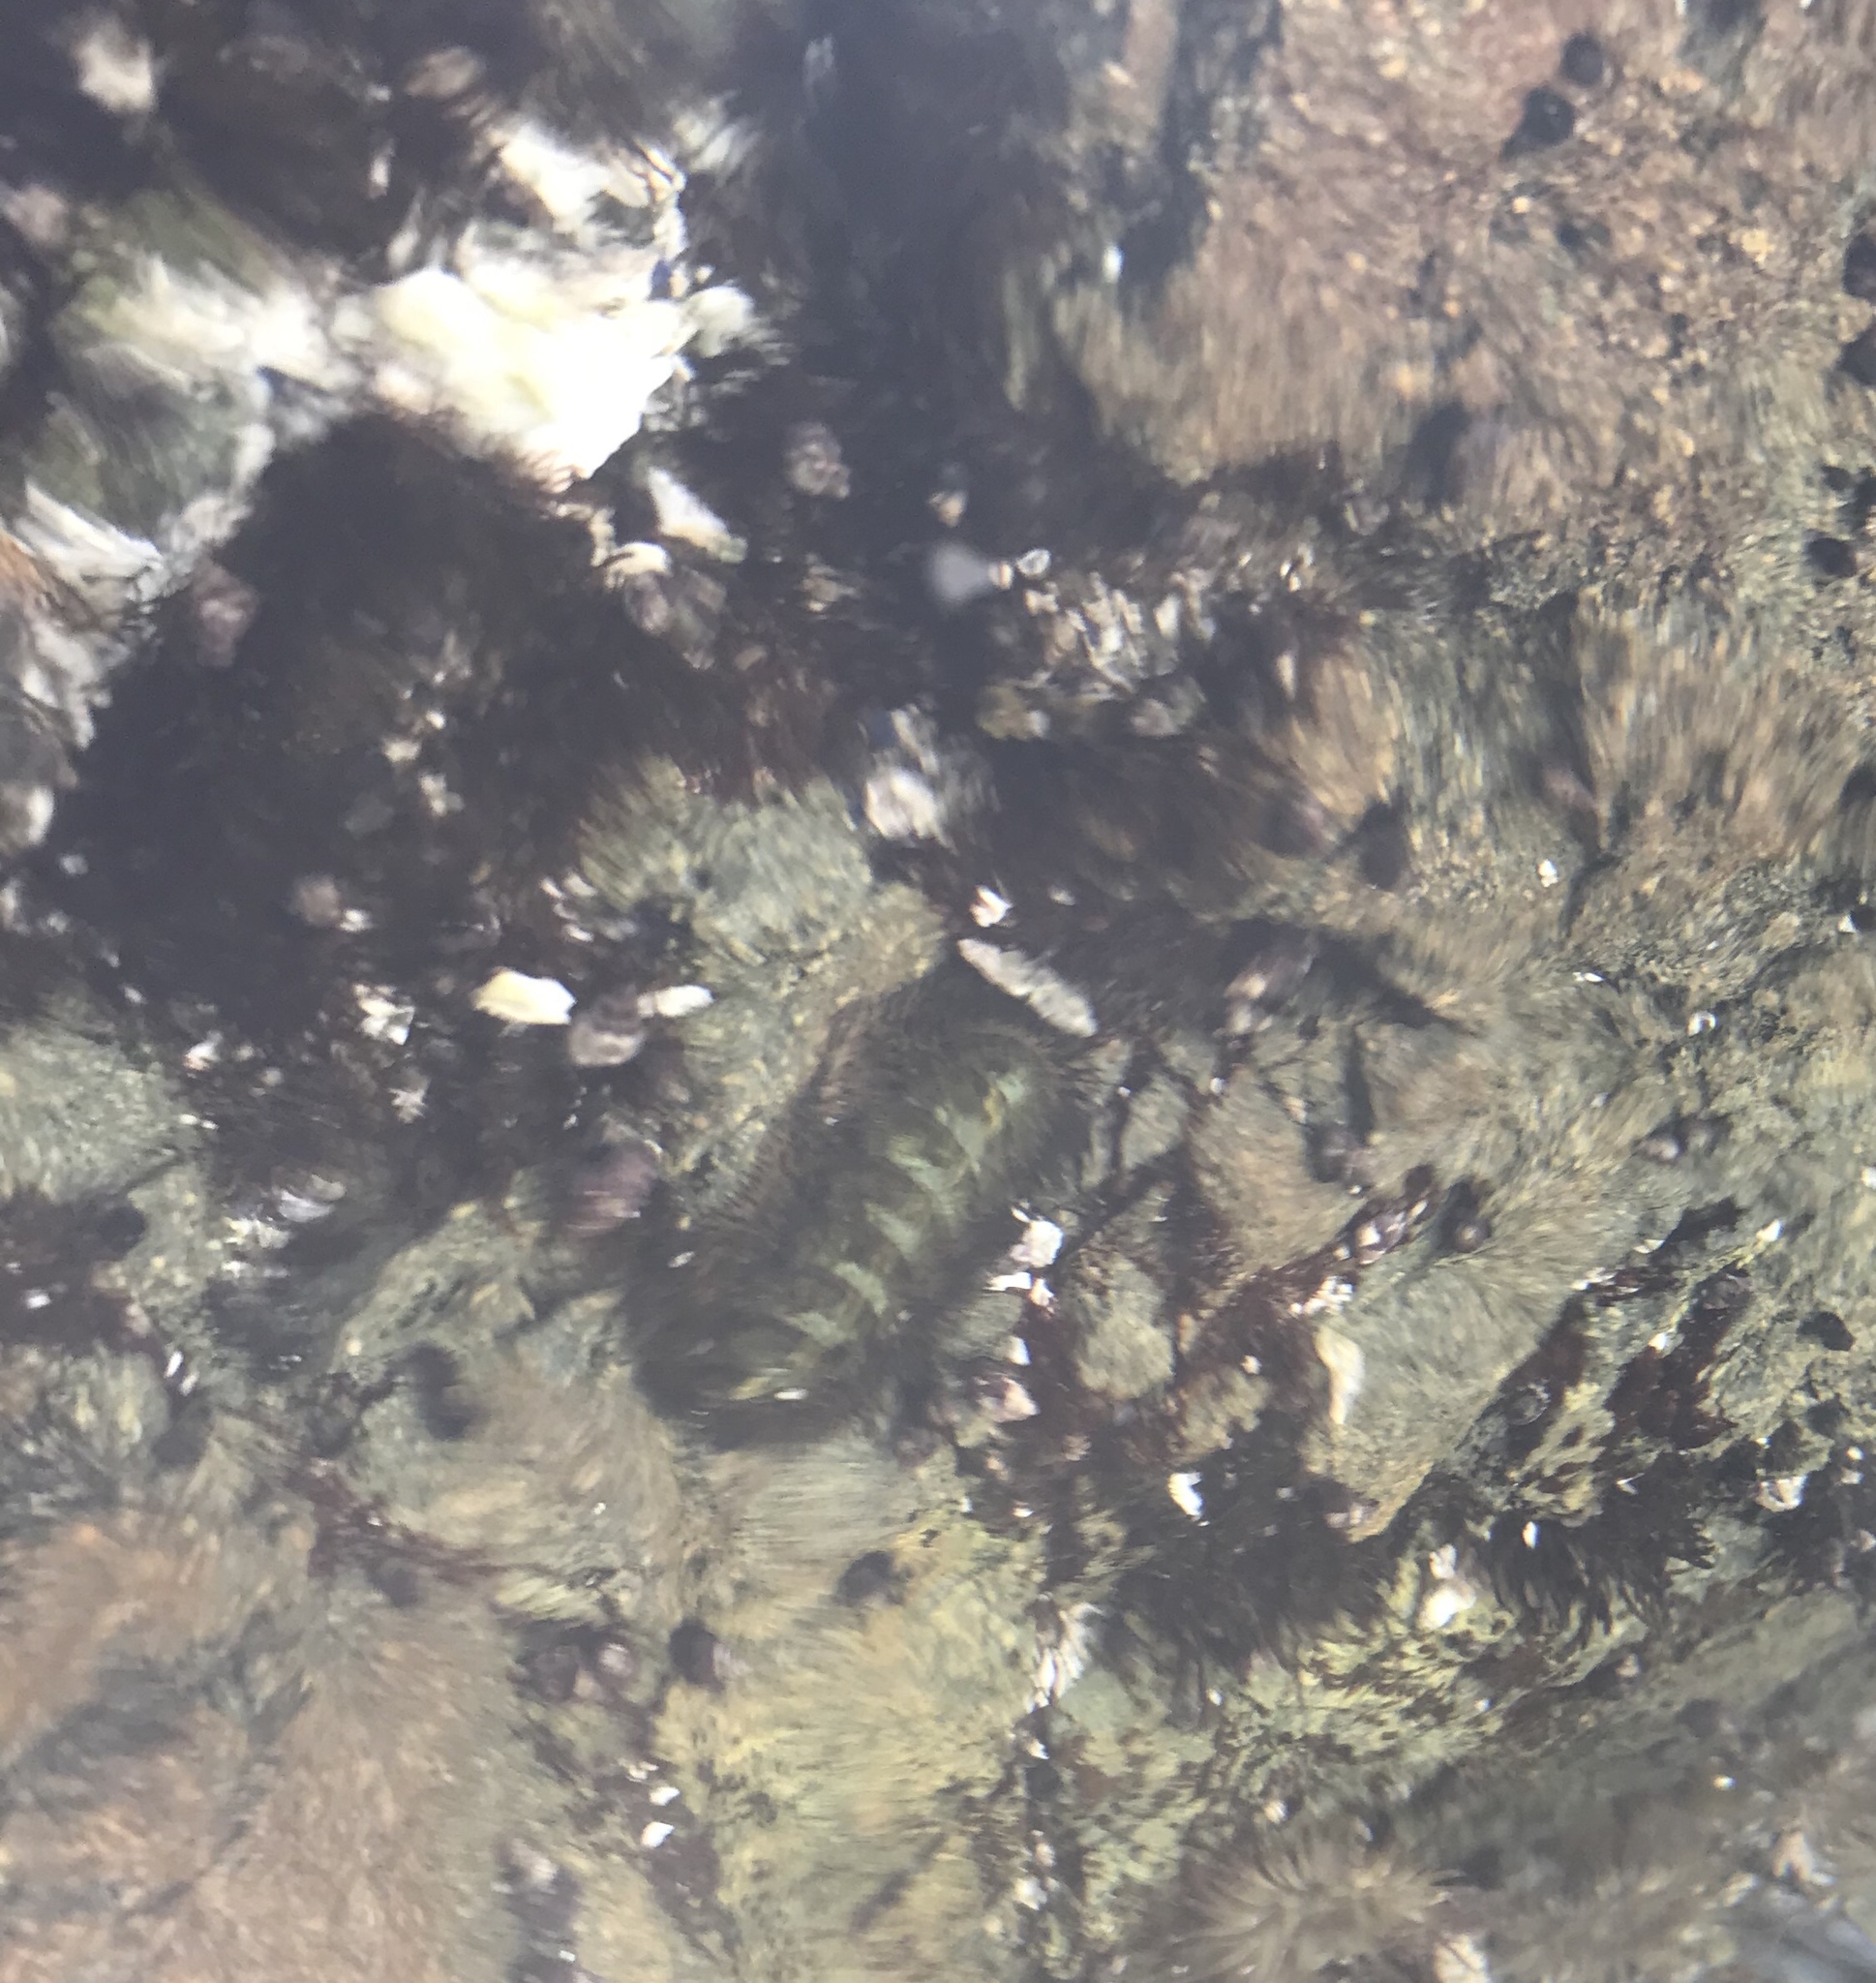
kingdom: Animalia
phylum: Mollusca
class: Polyplacophora
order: Chitonida
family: Mopaliidae
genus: Mopalia
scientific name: Mopalia muscosa
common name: Mossy chiton
